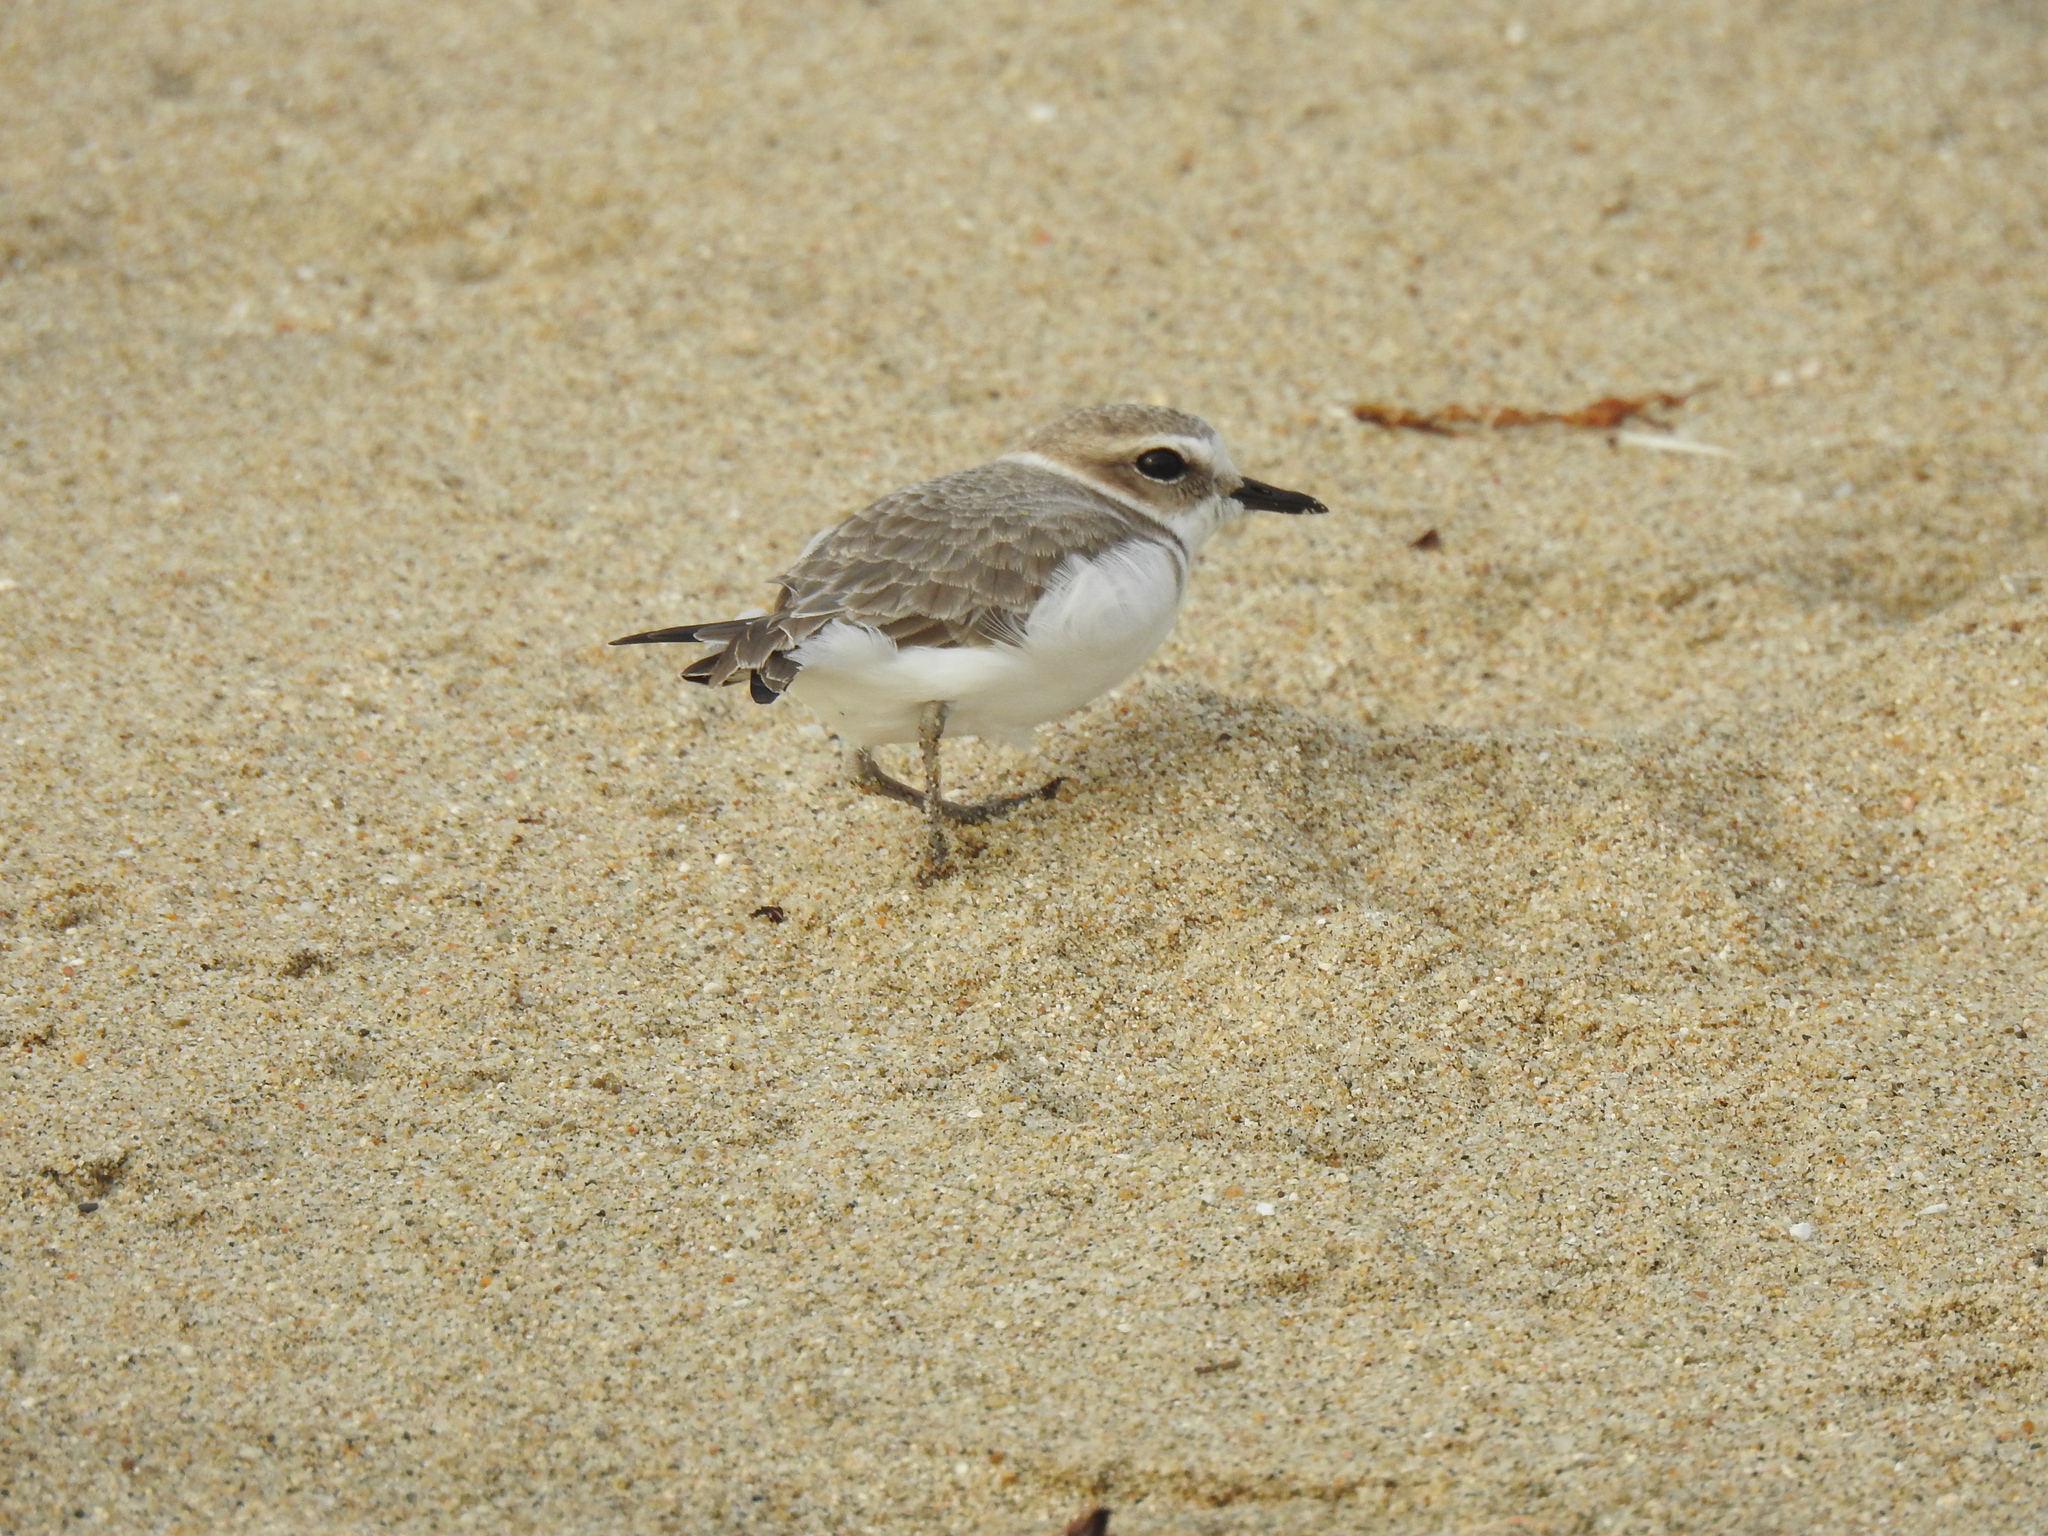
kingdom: Animalia
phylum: Chordata
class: Aves
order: Charadriiformes
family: Charadriidae
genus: Anarhynchus
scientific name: Anarhynchus
